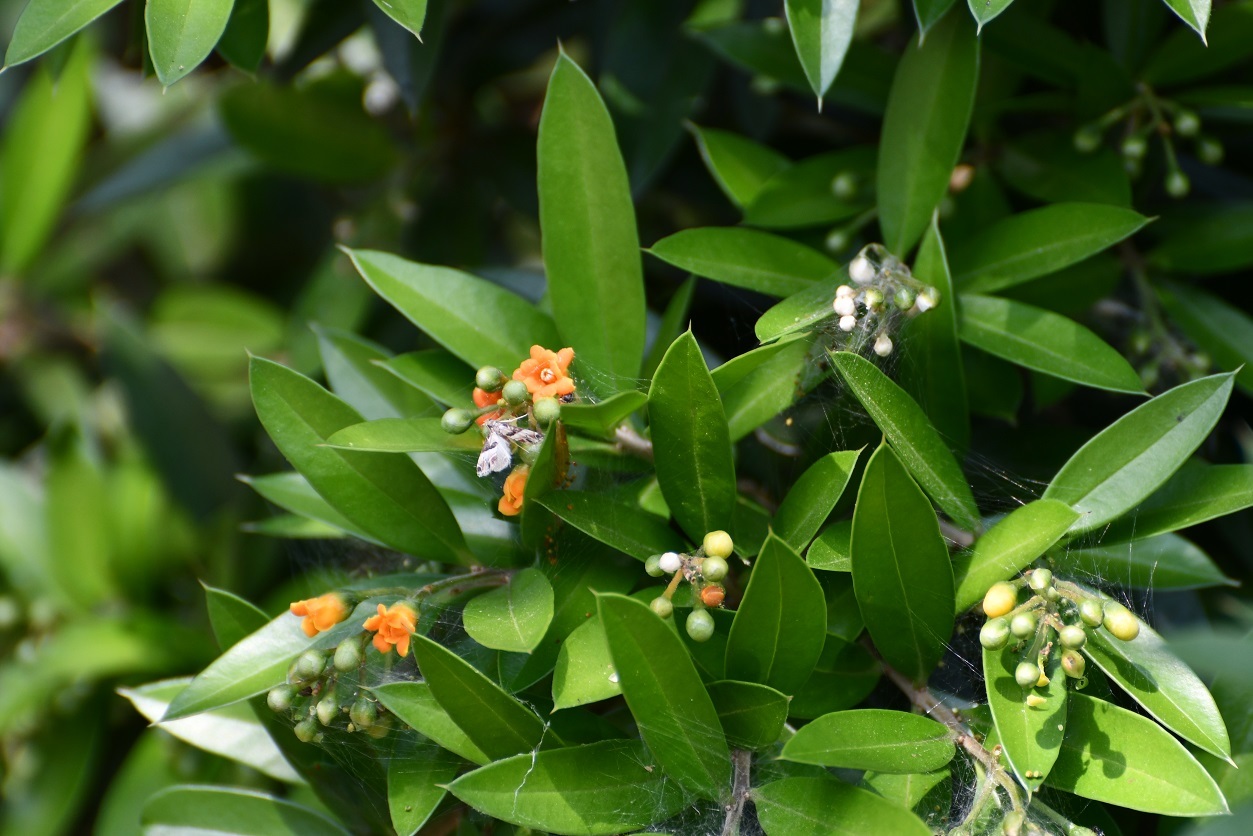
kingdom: Plantae
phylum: Tracheophyta
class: Magnoliopsida
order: Ericales
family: Primulaceae
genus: Bonellia
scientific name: Bonellia macrocarpa
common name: Primrose
